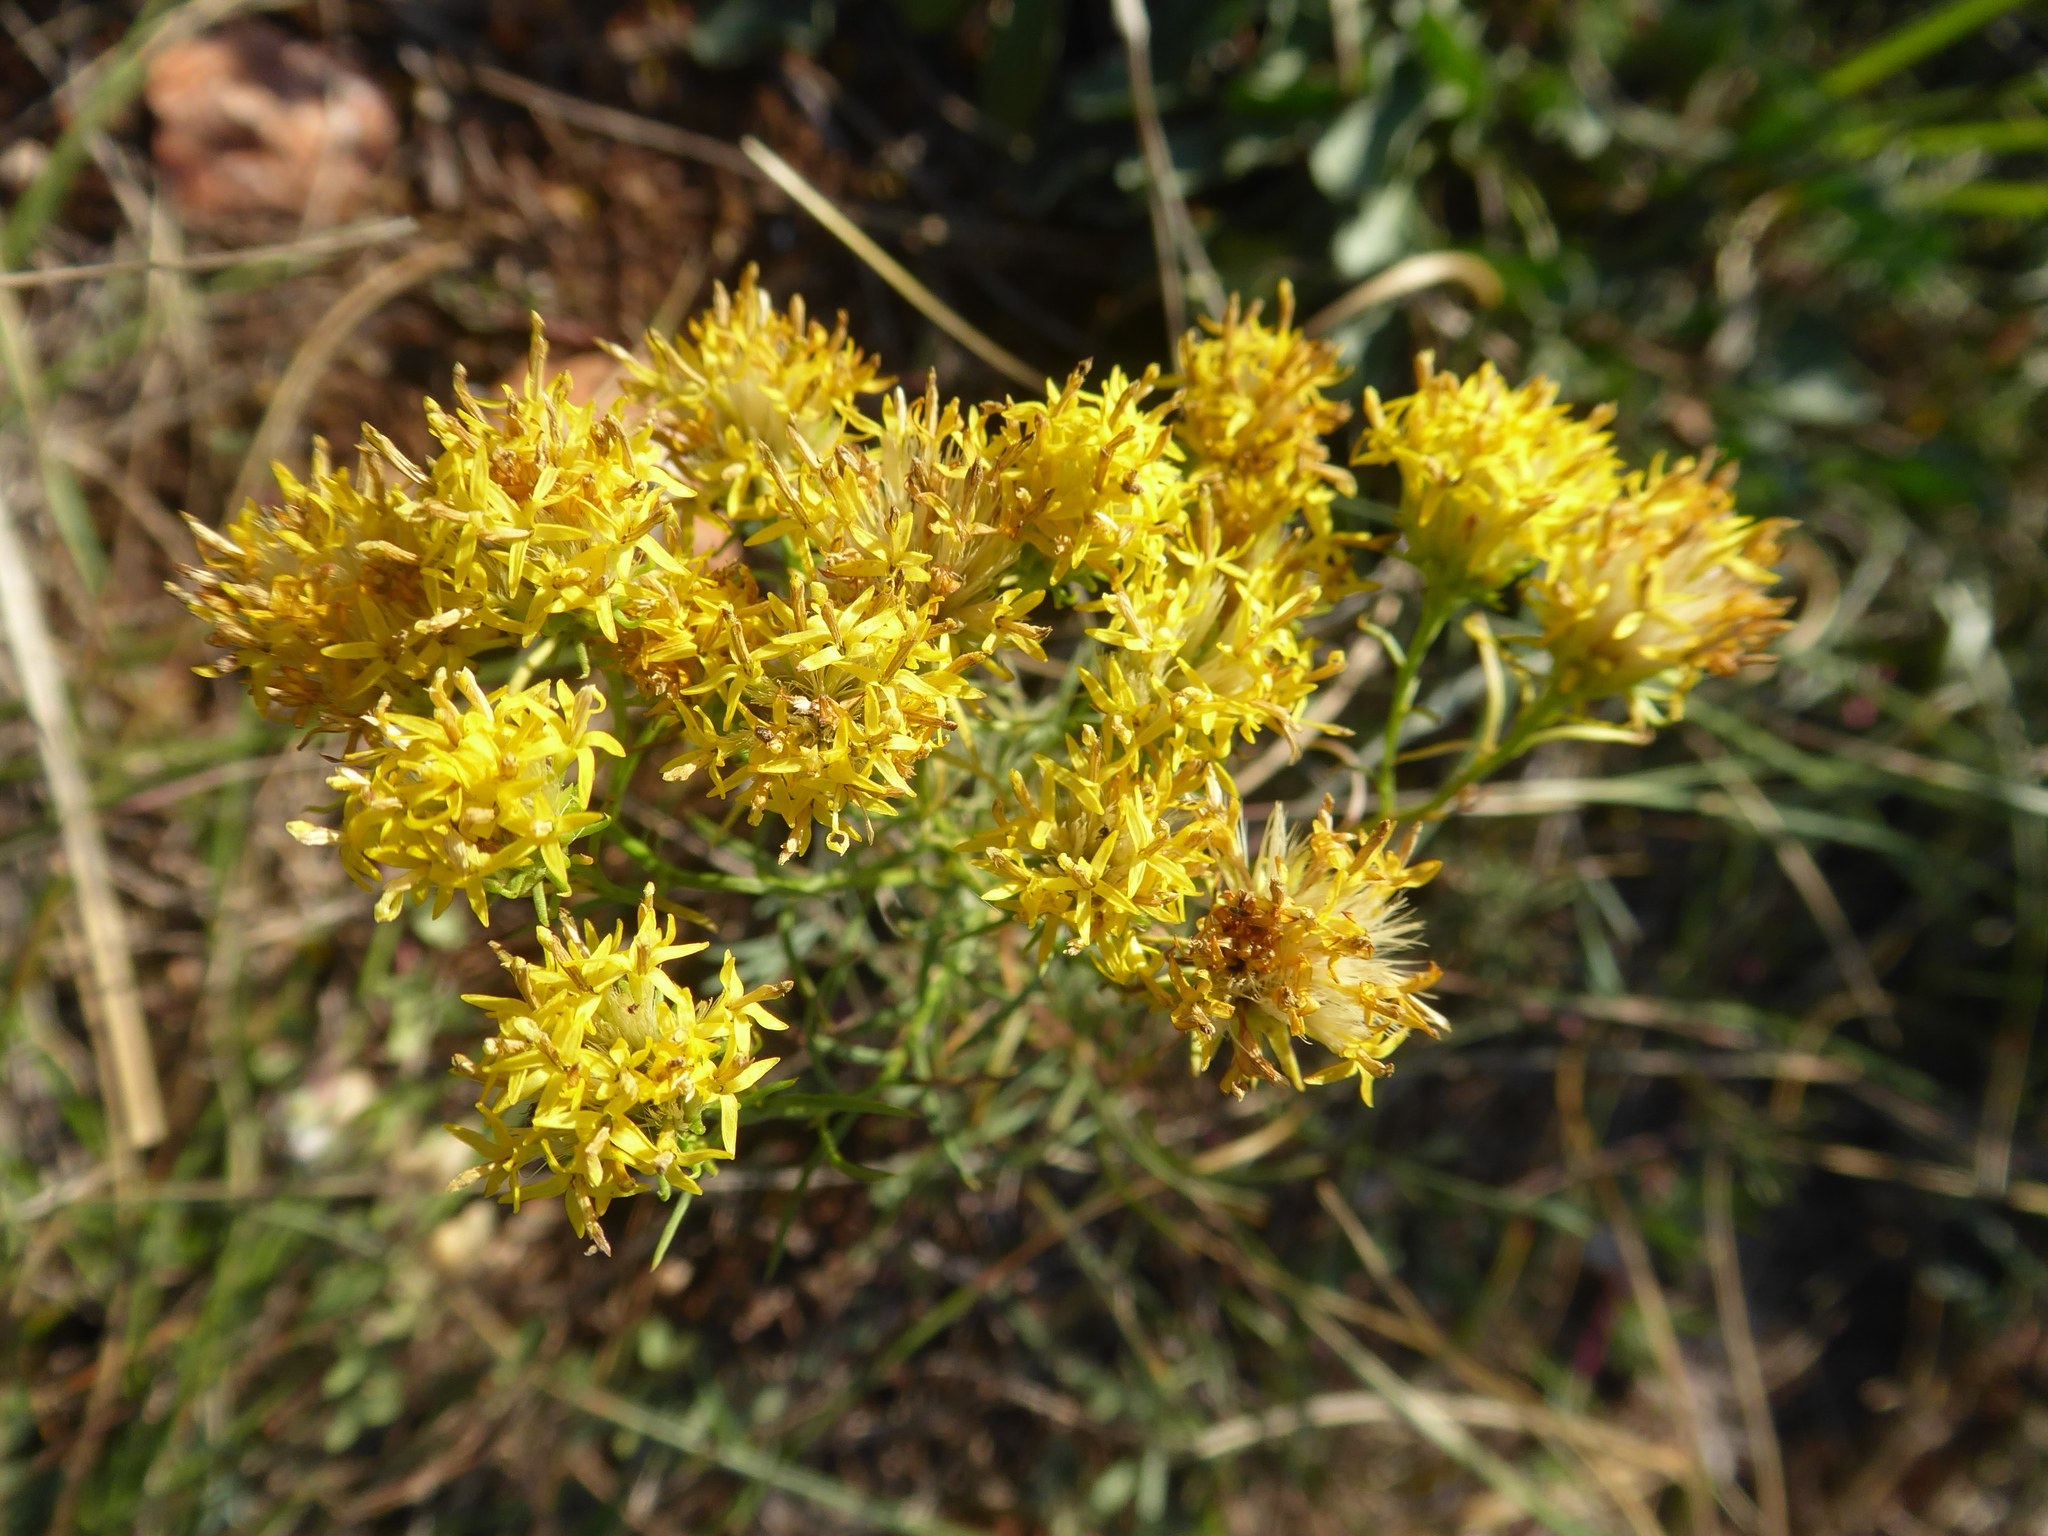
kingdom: Plantae
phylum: Tracheophyta
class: Magnoliopsida
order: Asterales
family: Asteraceae
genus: Galatella
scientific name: Galatella linosyris
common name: Goldilocks aster
